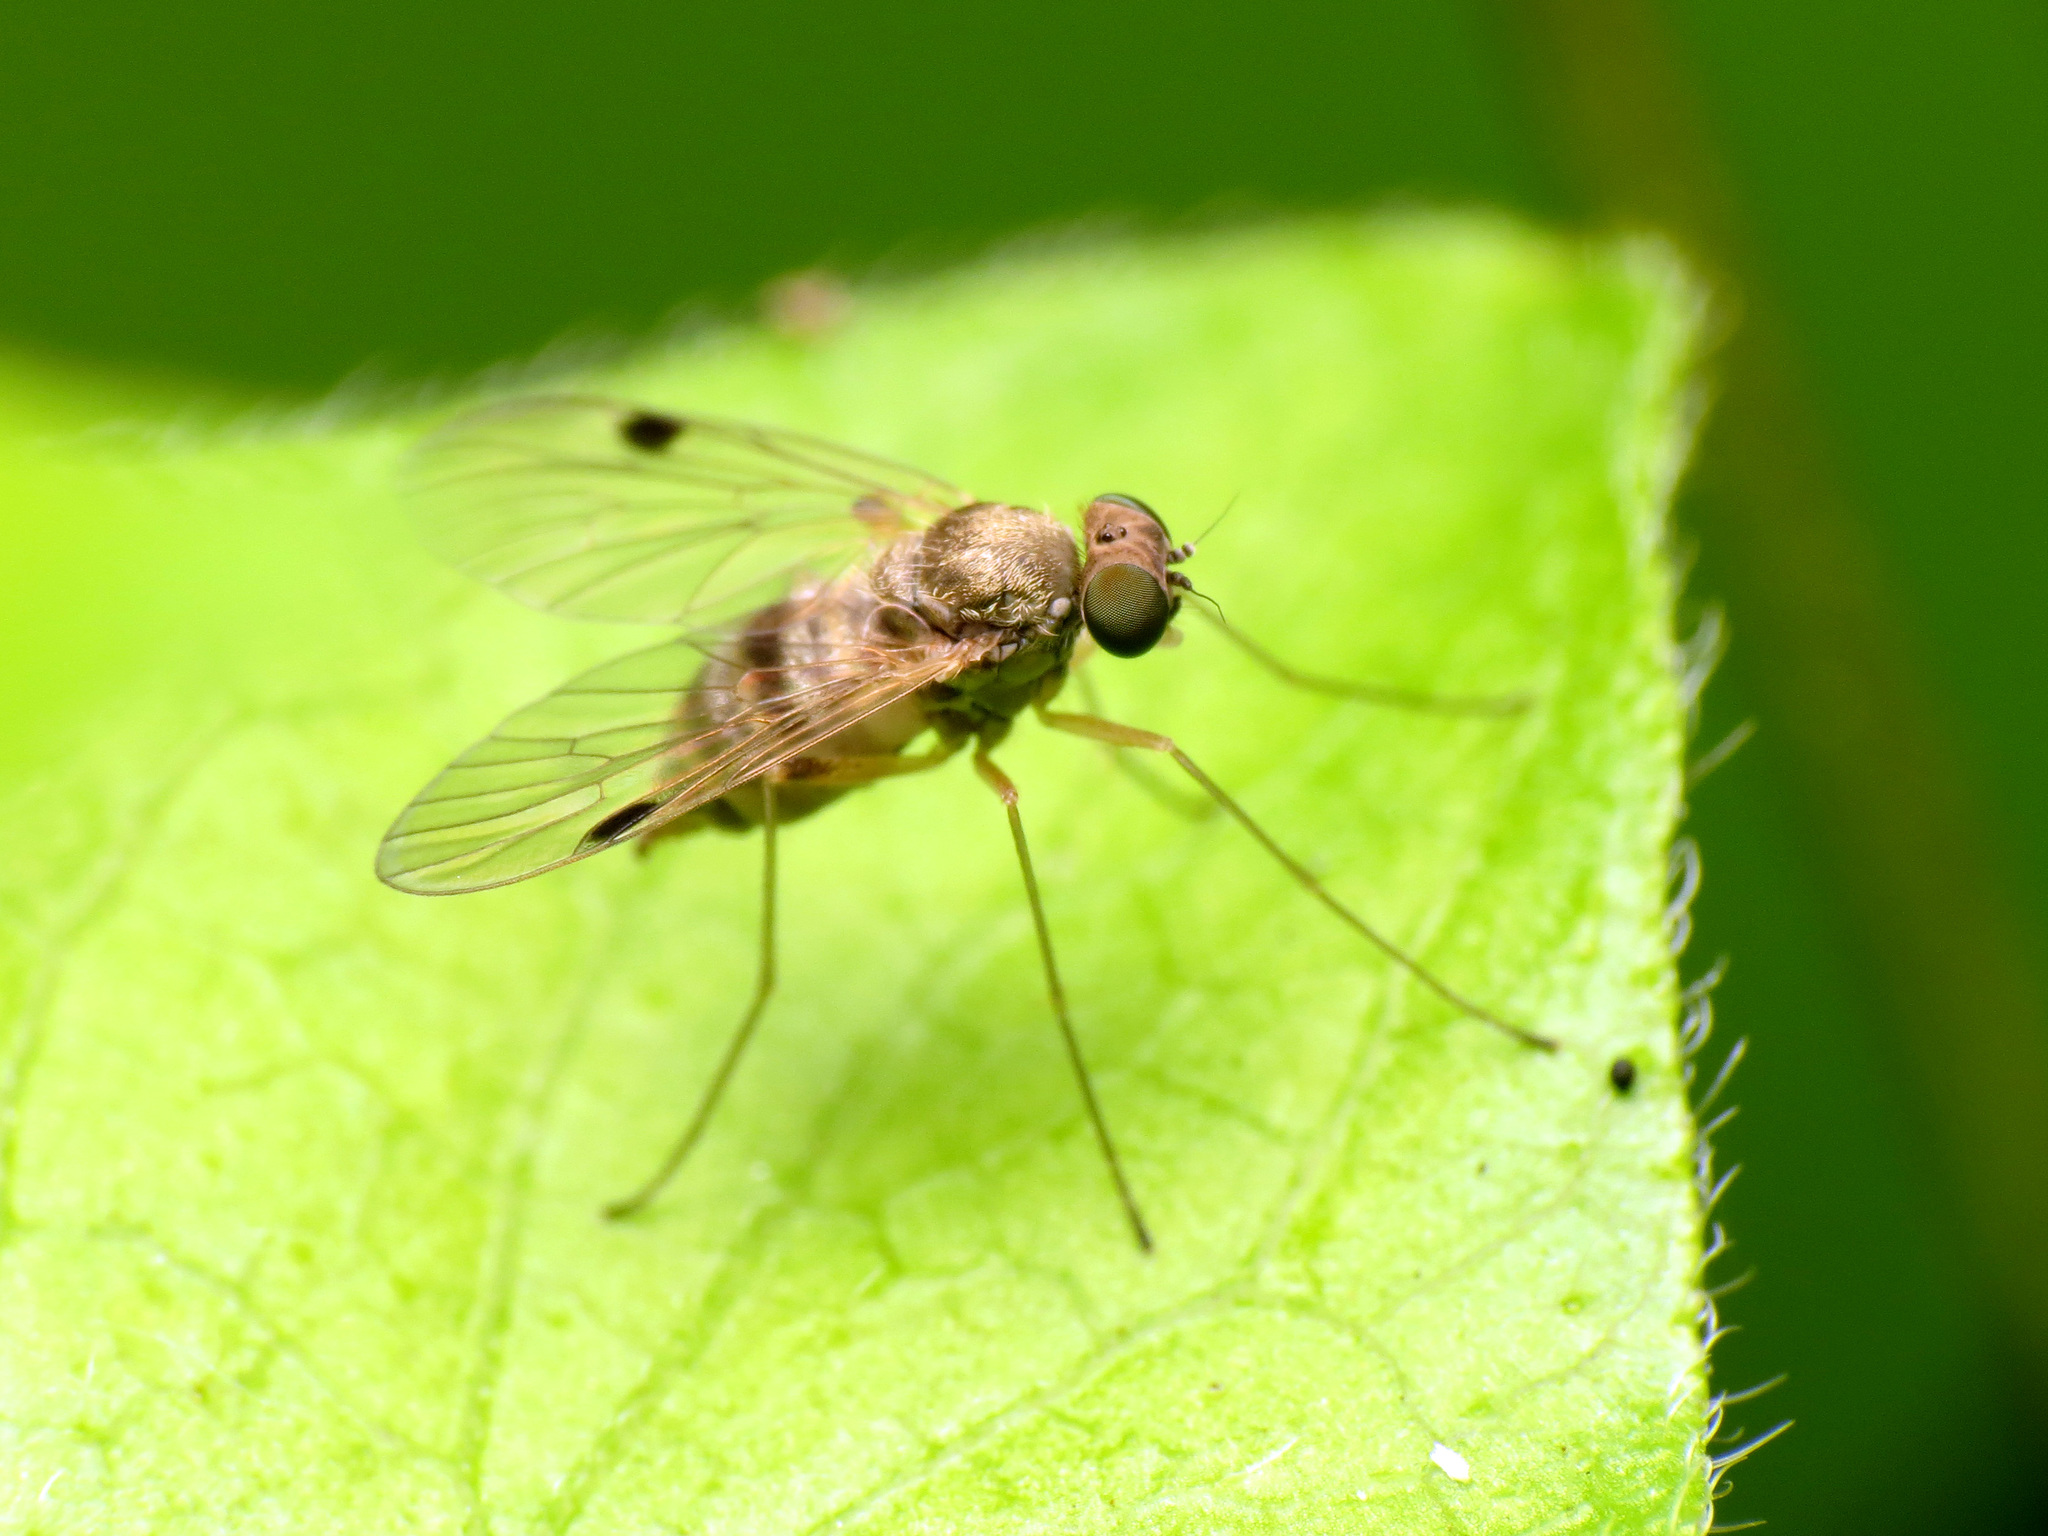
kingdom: Animalia
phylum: Arthropoda
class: Insecta
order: Diptera
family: Rhagionidae
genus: Chrysopilus
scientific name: Chrysopilus modestus
